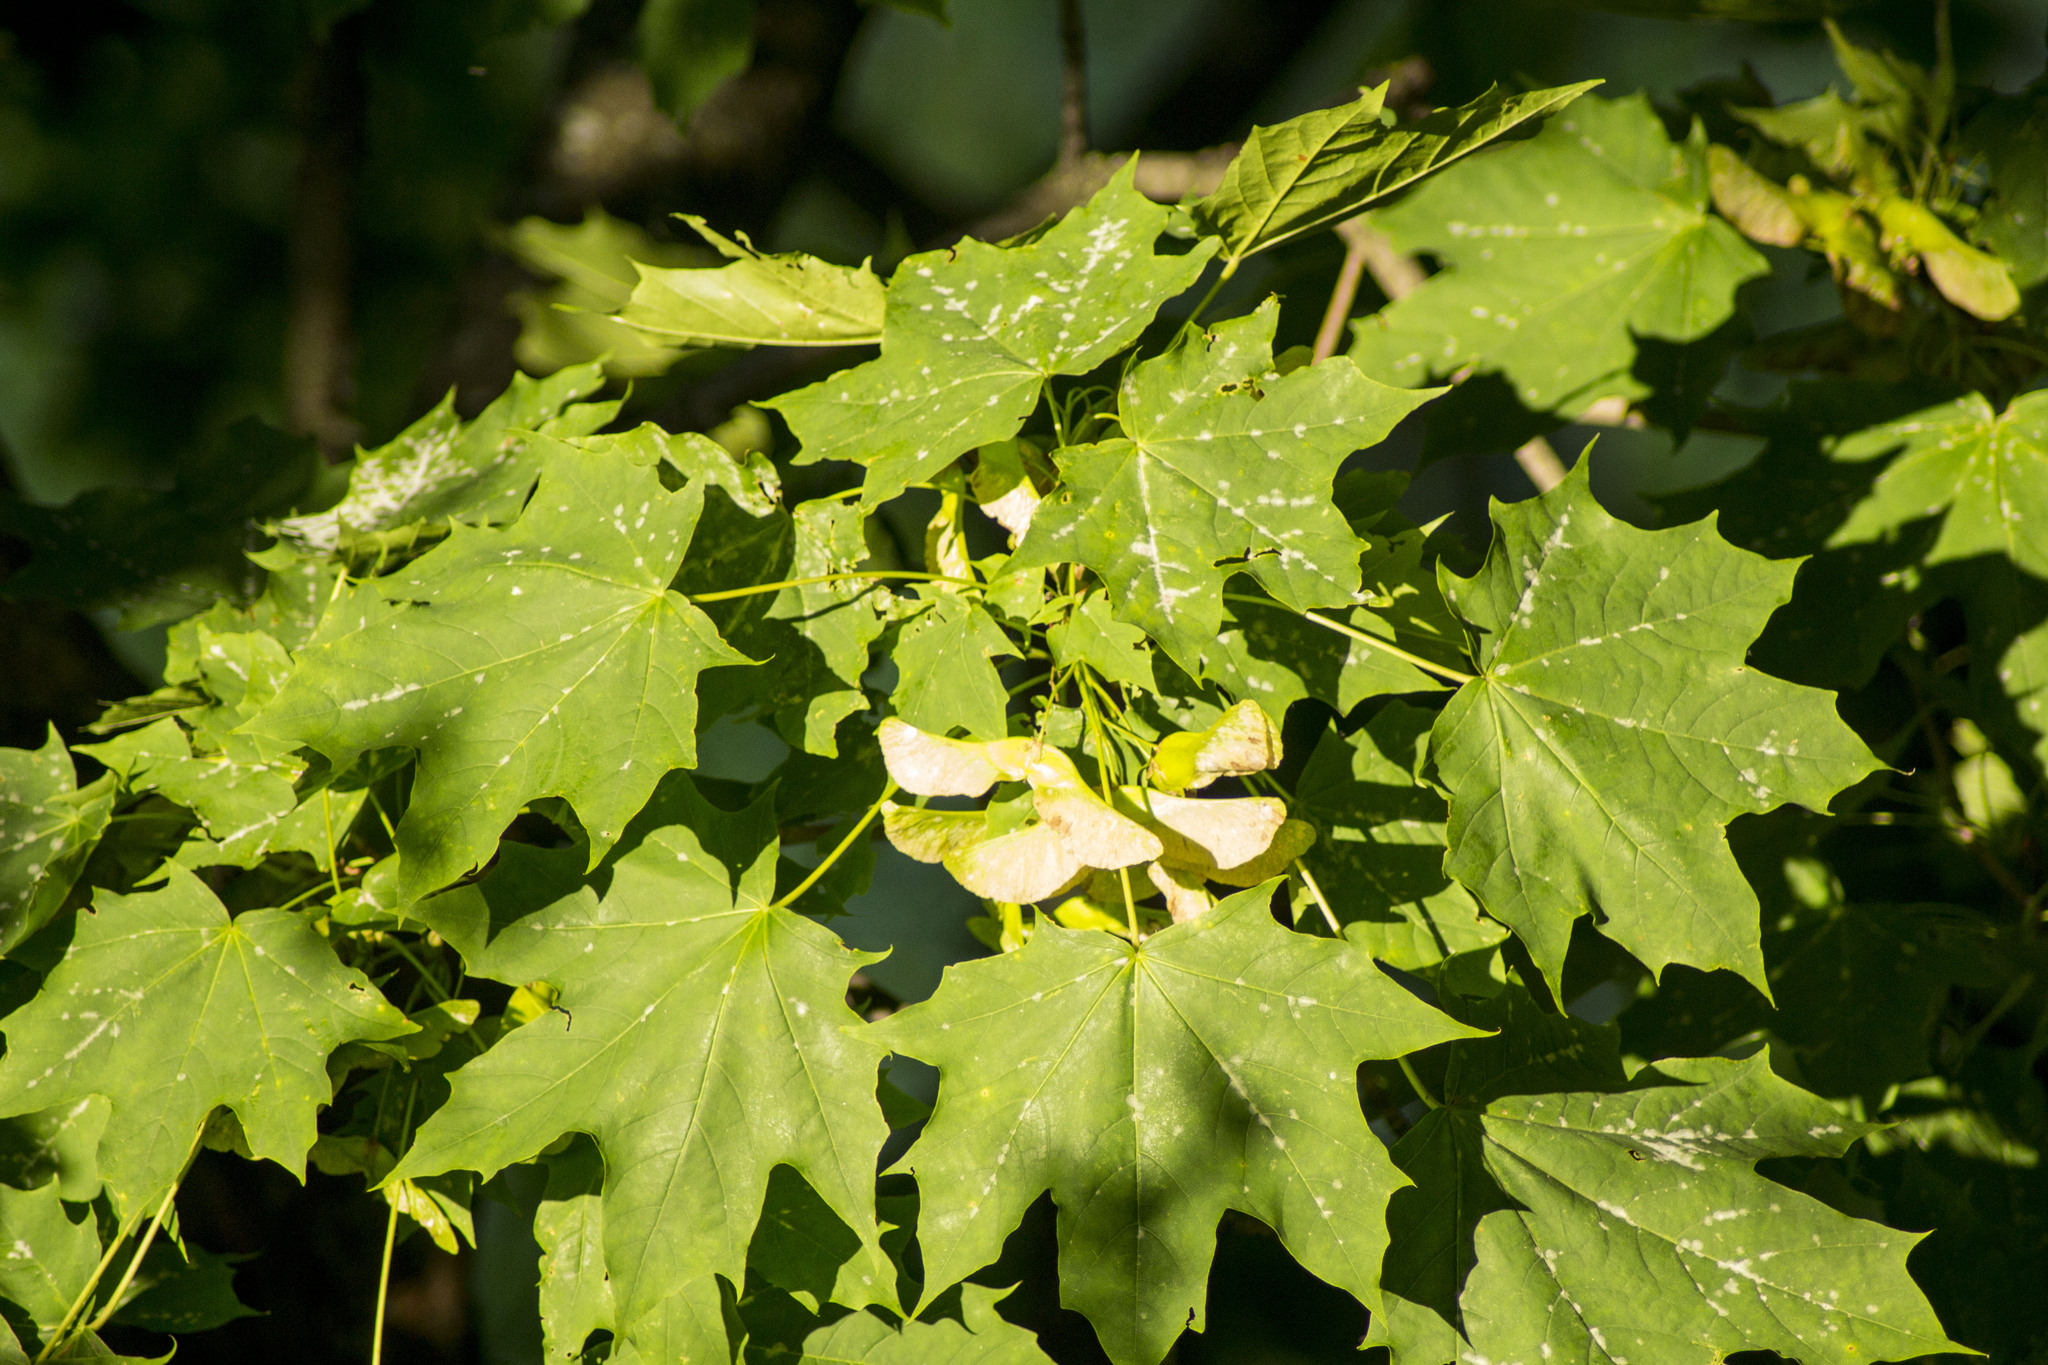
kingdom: Plantae
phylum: Tracheophyta
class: Magnoliopsida
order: Sapindales
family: Sapindaceae
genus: Acer
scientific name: Acer platanoides
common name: Norway maple
